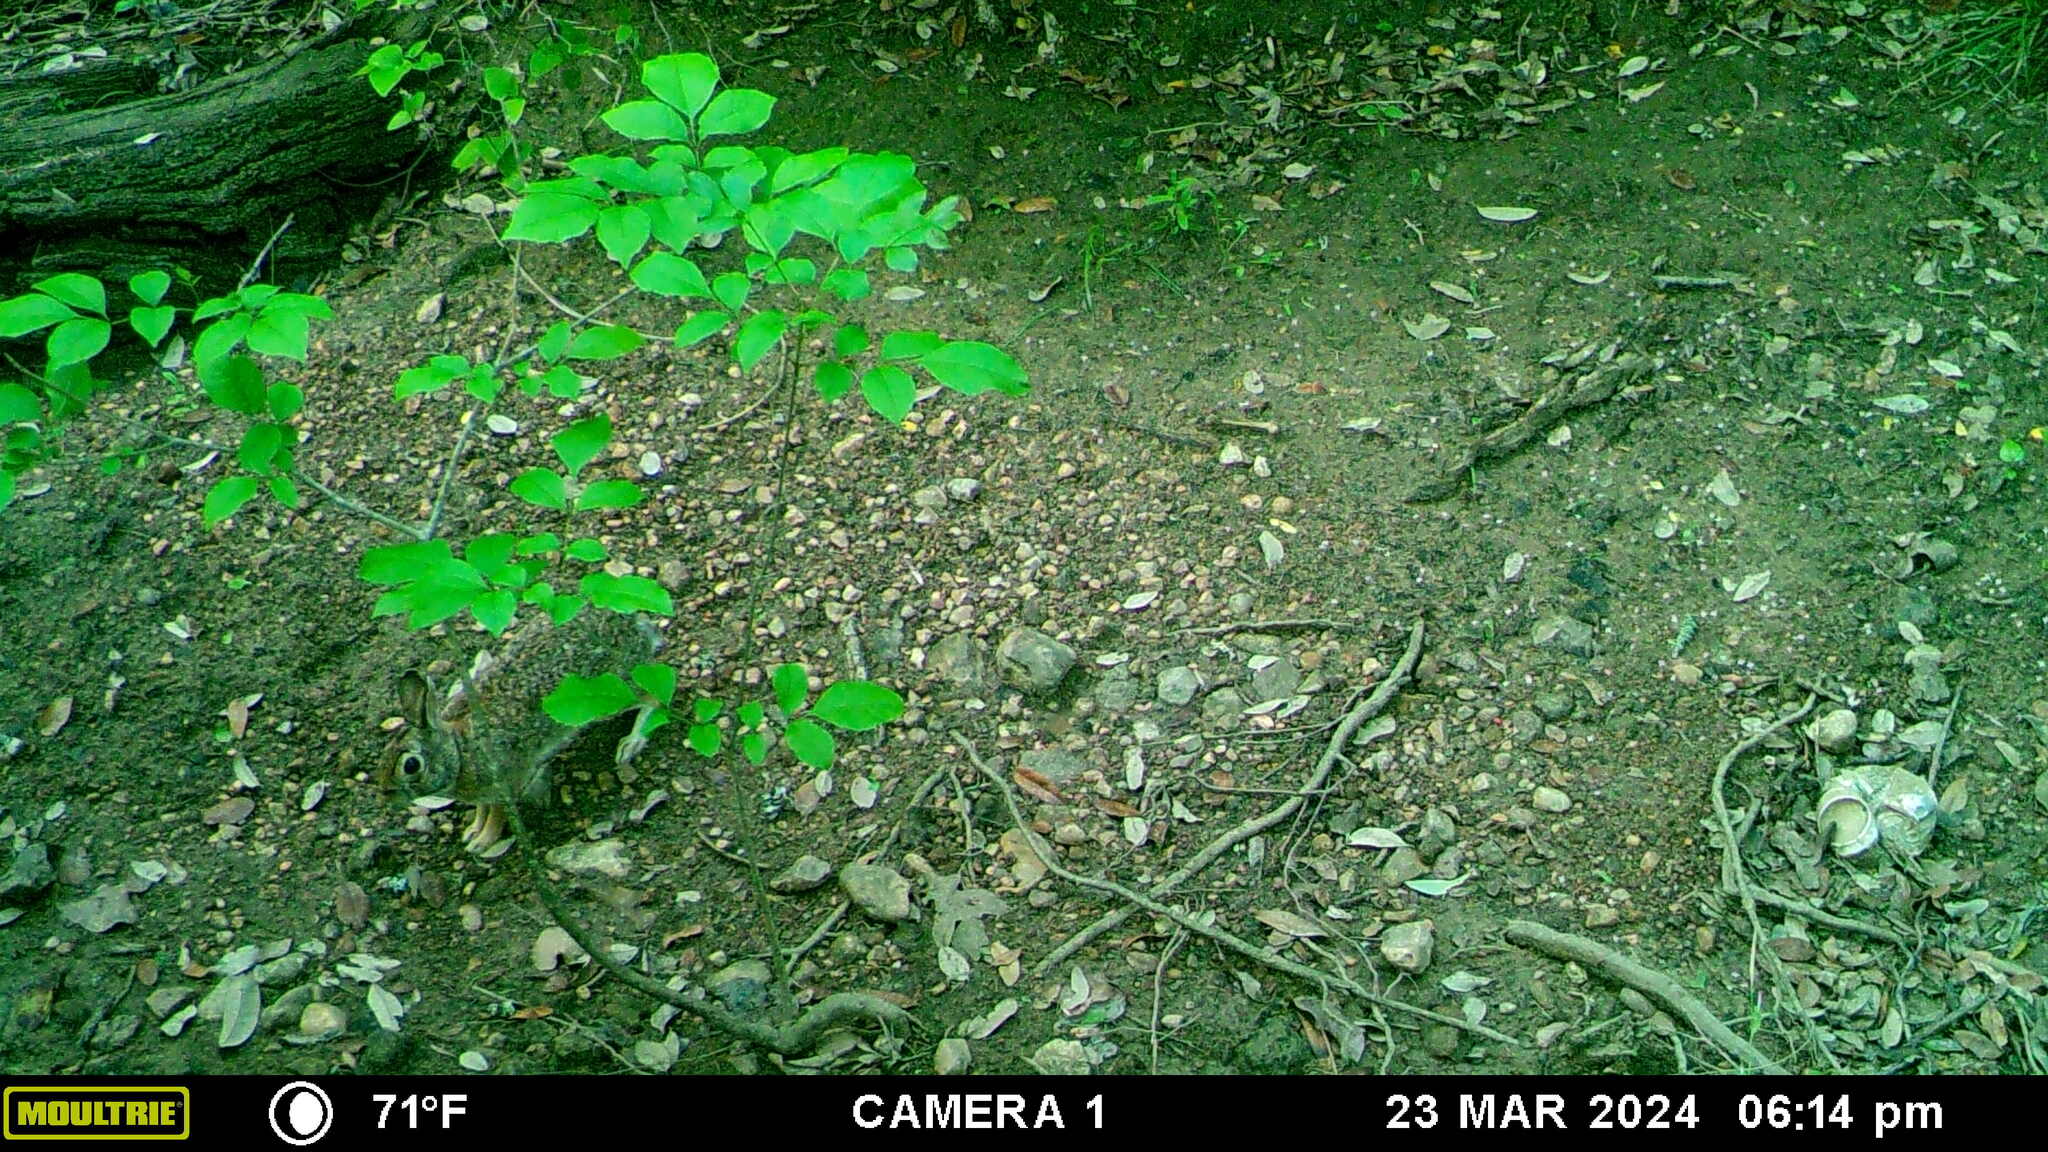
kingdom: Animalia
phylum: Chordata
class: Mammalia
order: Lagomorpha
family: Leporidae
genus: Sylvilagus
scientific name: Sylvilagus floridanus
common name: Eastern cottontail
